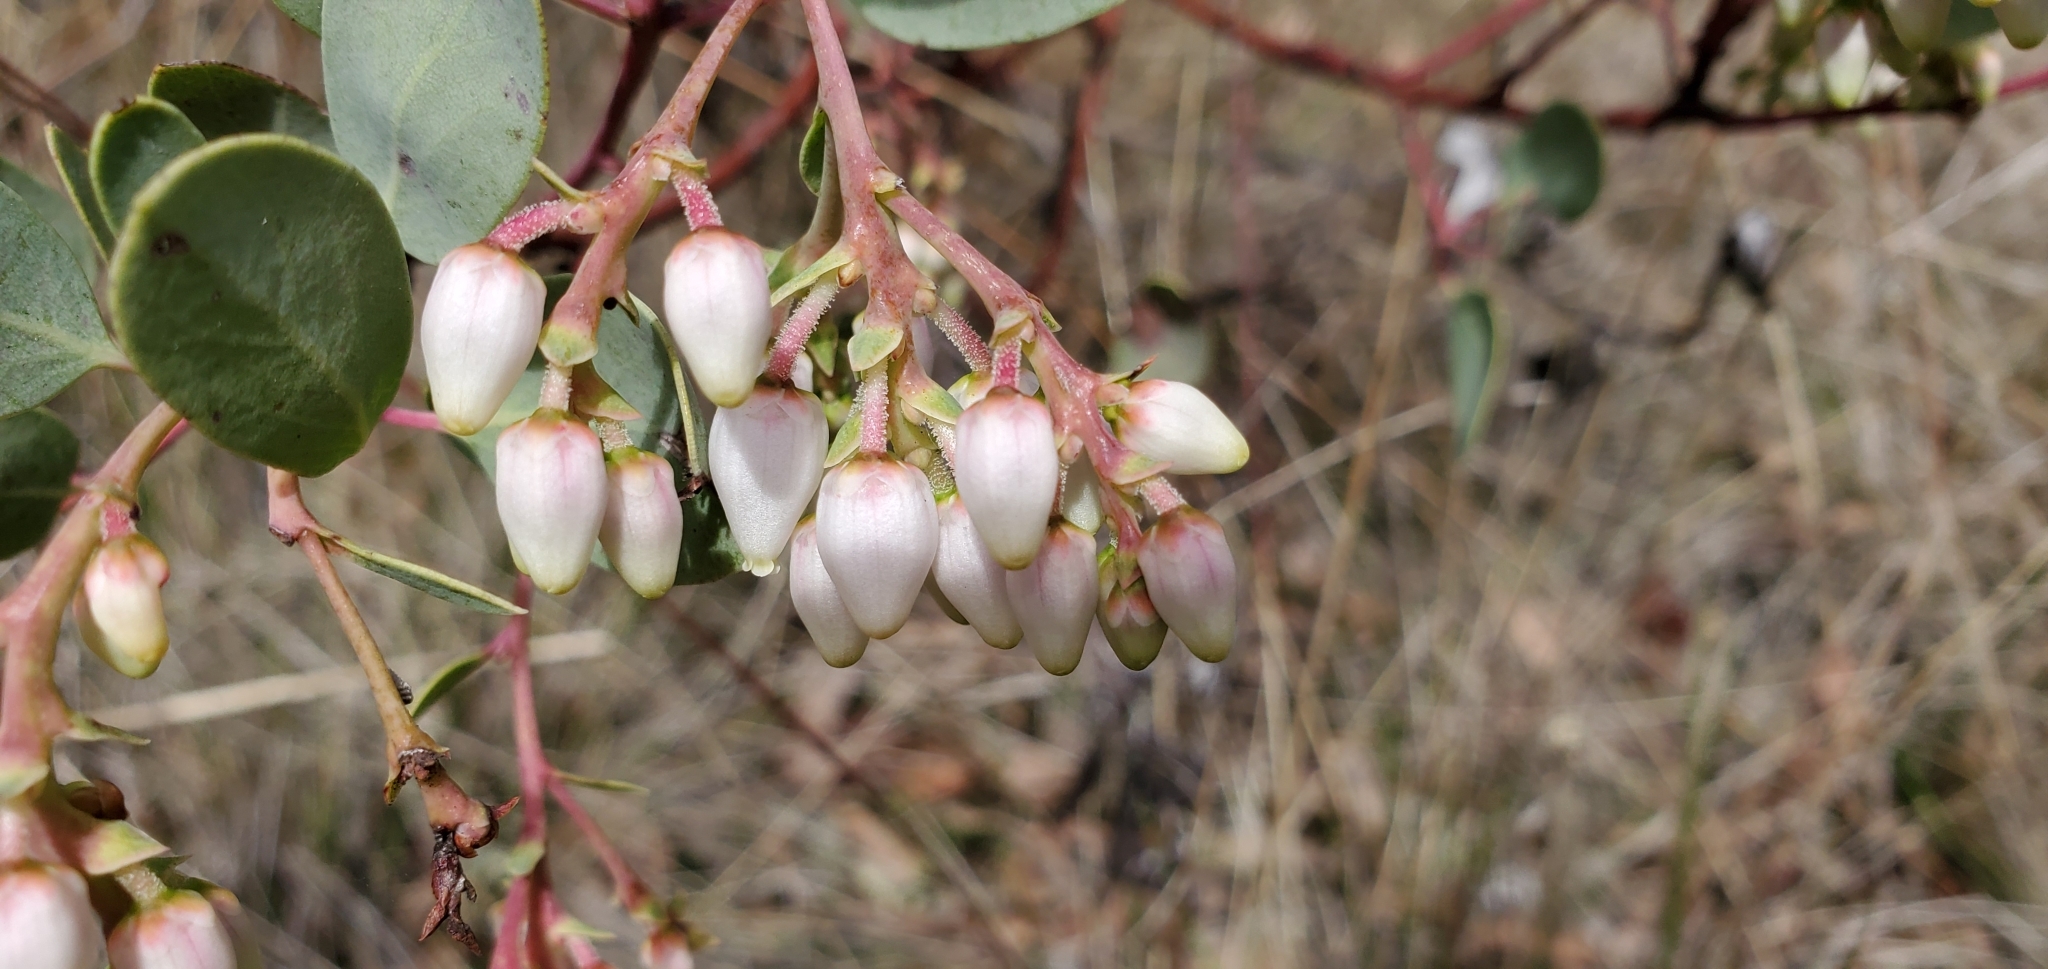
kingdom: Plantae
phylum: Tracheophyta
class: Magnoliopsida
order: Ericales
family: Ericaceae
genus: Arctostaphylos
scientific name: Arctostaphylos glauca
